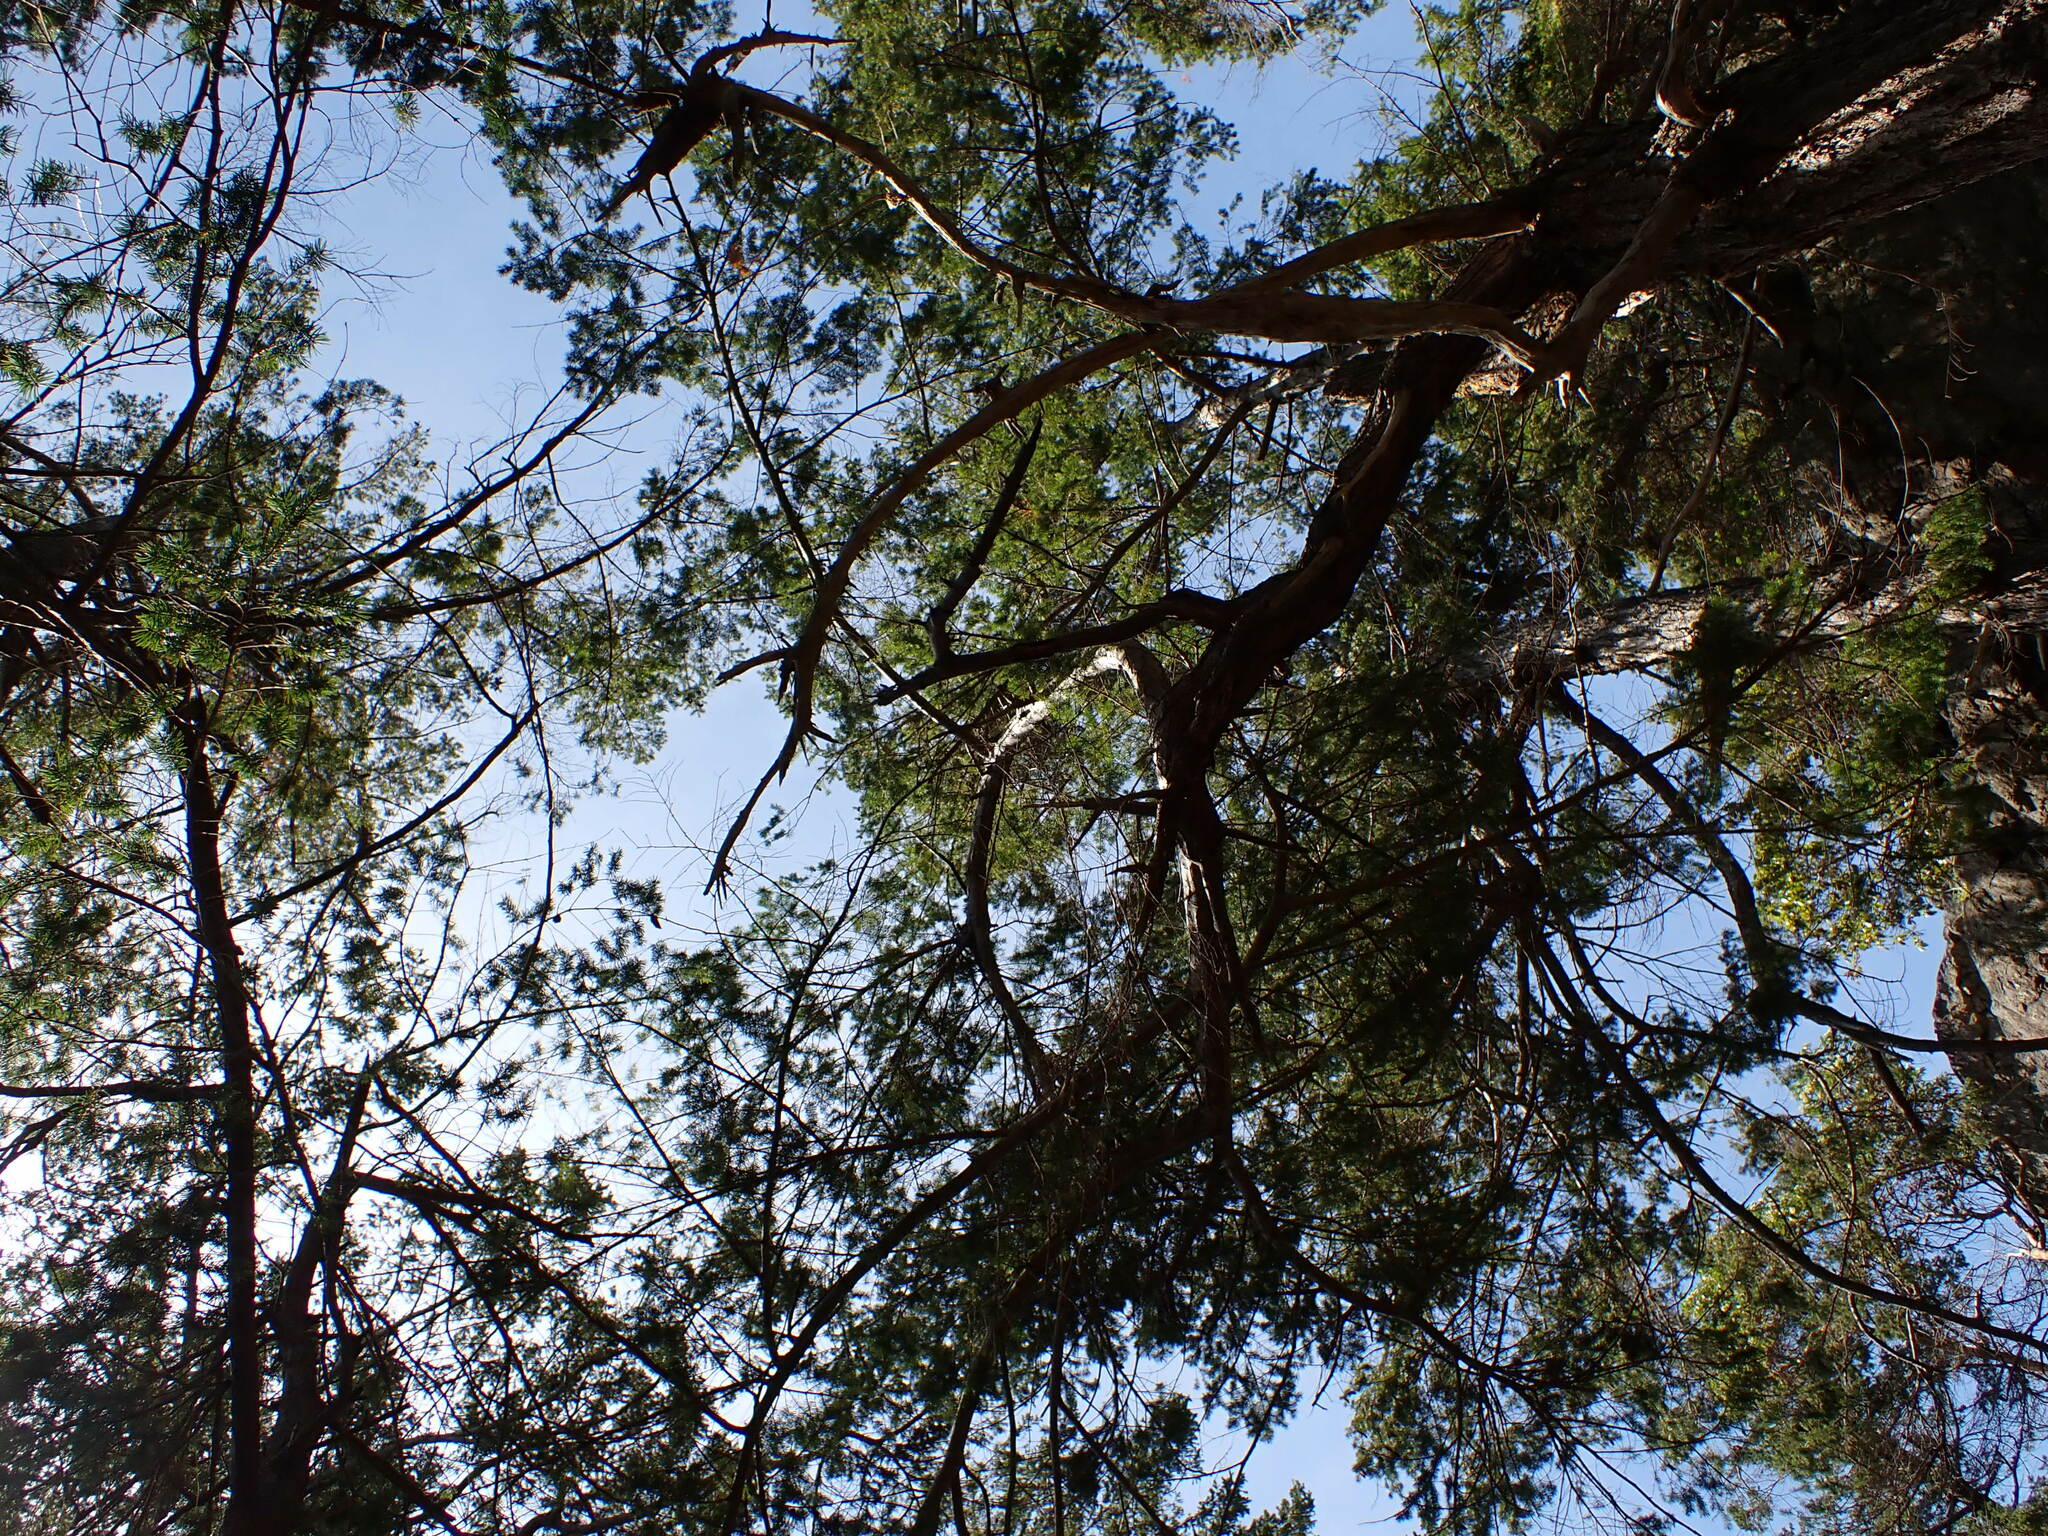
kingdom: Plantae
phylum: Tracheophyta
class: Pinopsida
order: Pinales
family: Pinaceae
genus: Pseudotsuga
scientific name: Pseudotsuga menziesii
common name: Douglas fir
